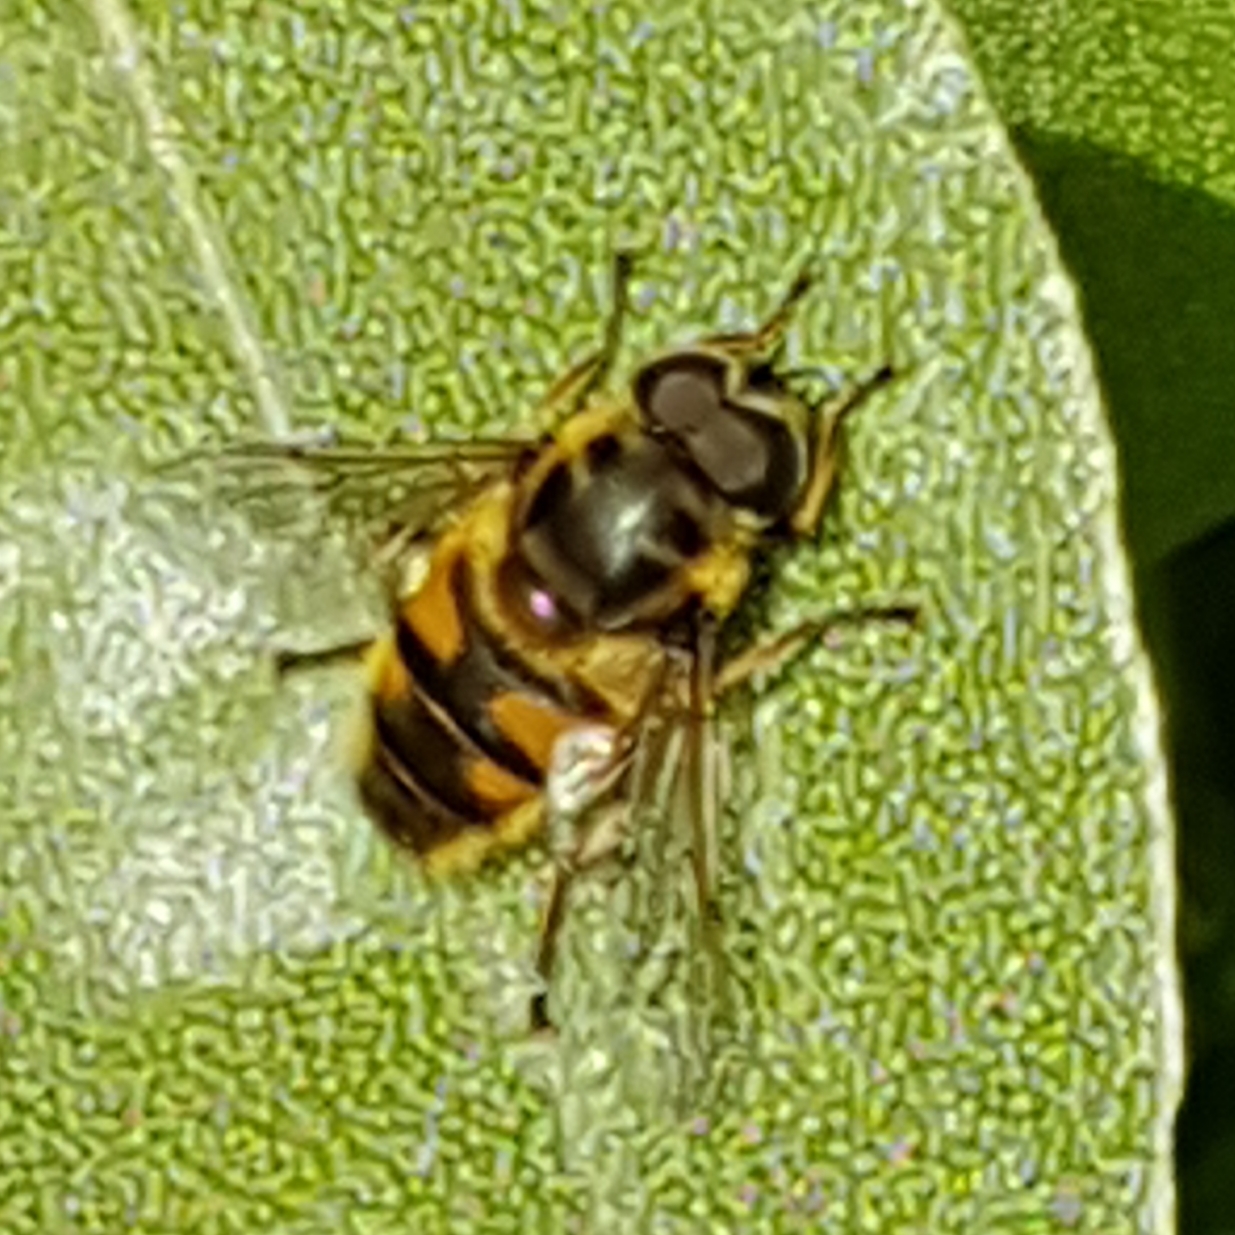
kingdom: Animalia
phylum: Arthropoda
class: Insecta
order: Diptera
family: Syrphidae
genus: Myathropa
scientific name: Myathropa florea
